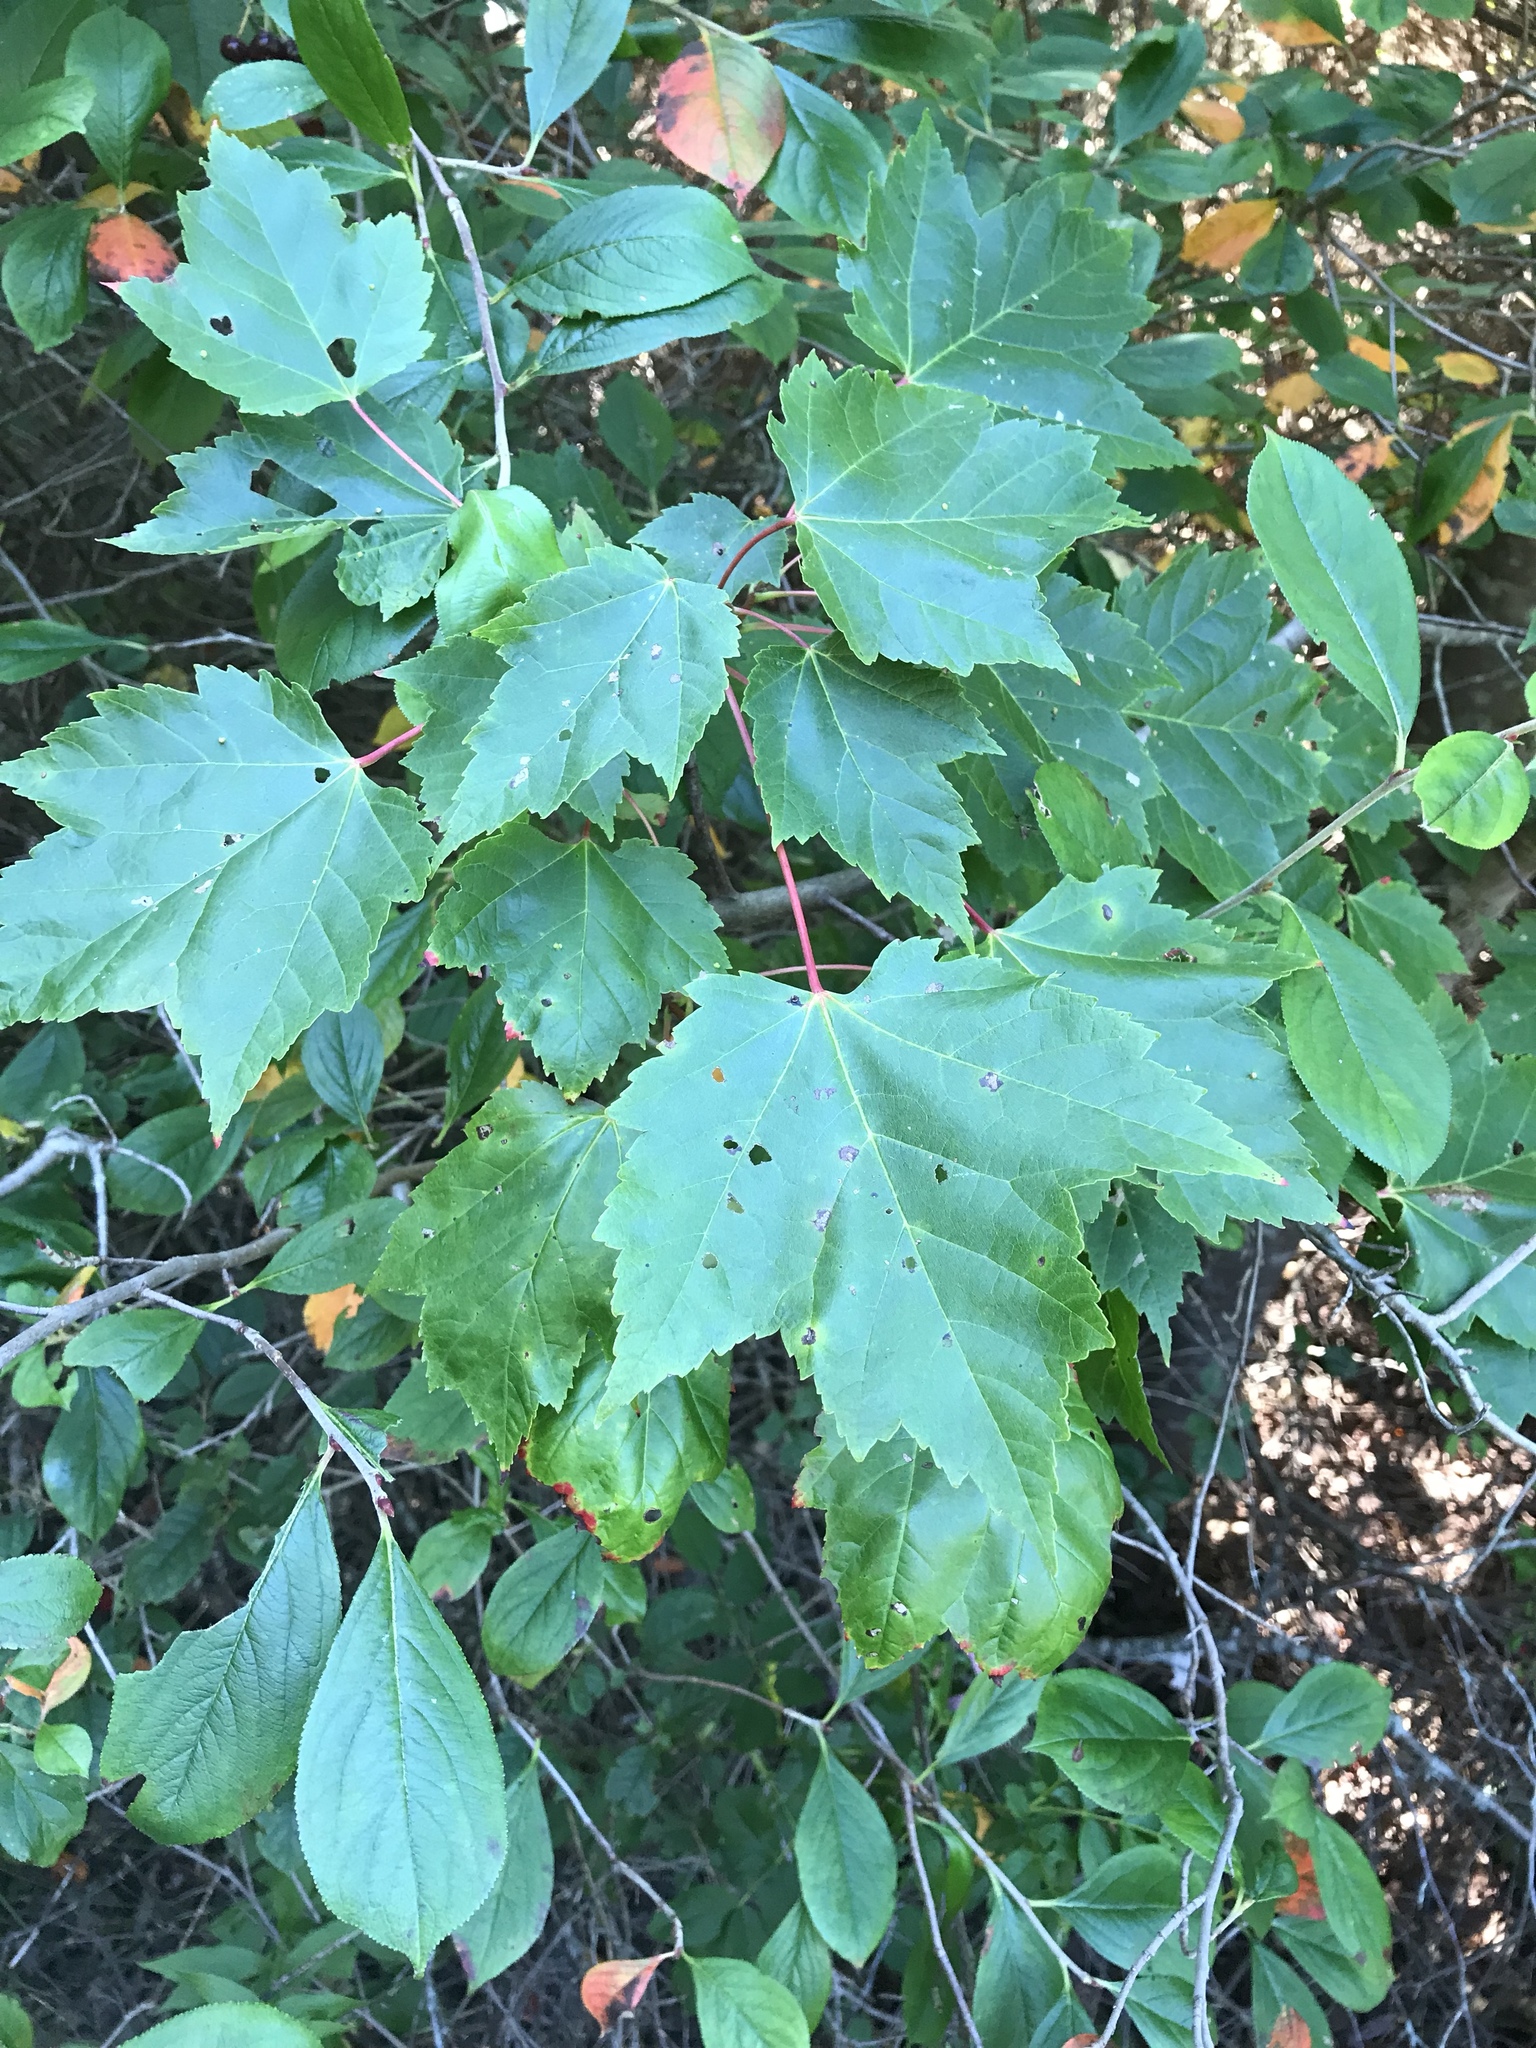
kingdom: Plantae
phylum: Tracheophyta
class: Magnoliopsida
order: Sapindales
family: Sapindaceae
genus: Acer
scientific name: Acer rubrum
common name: Red maple
